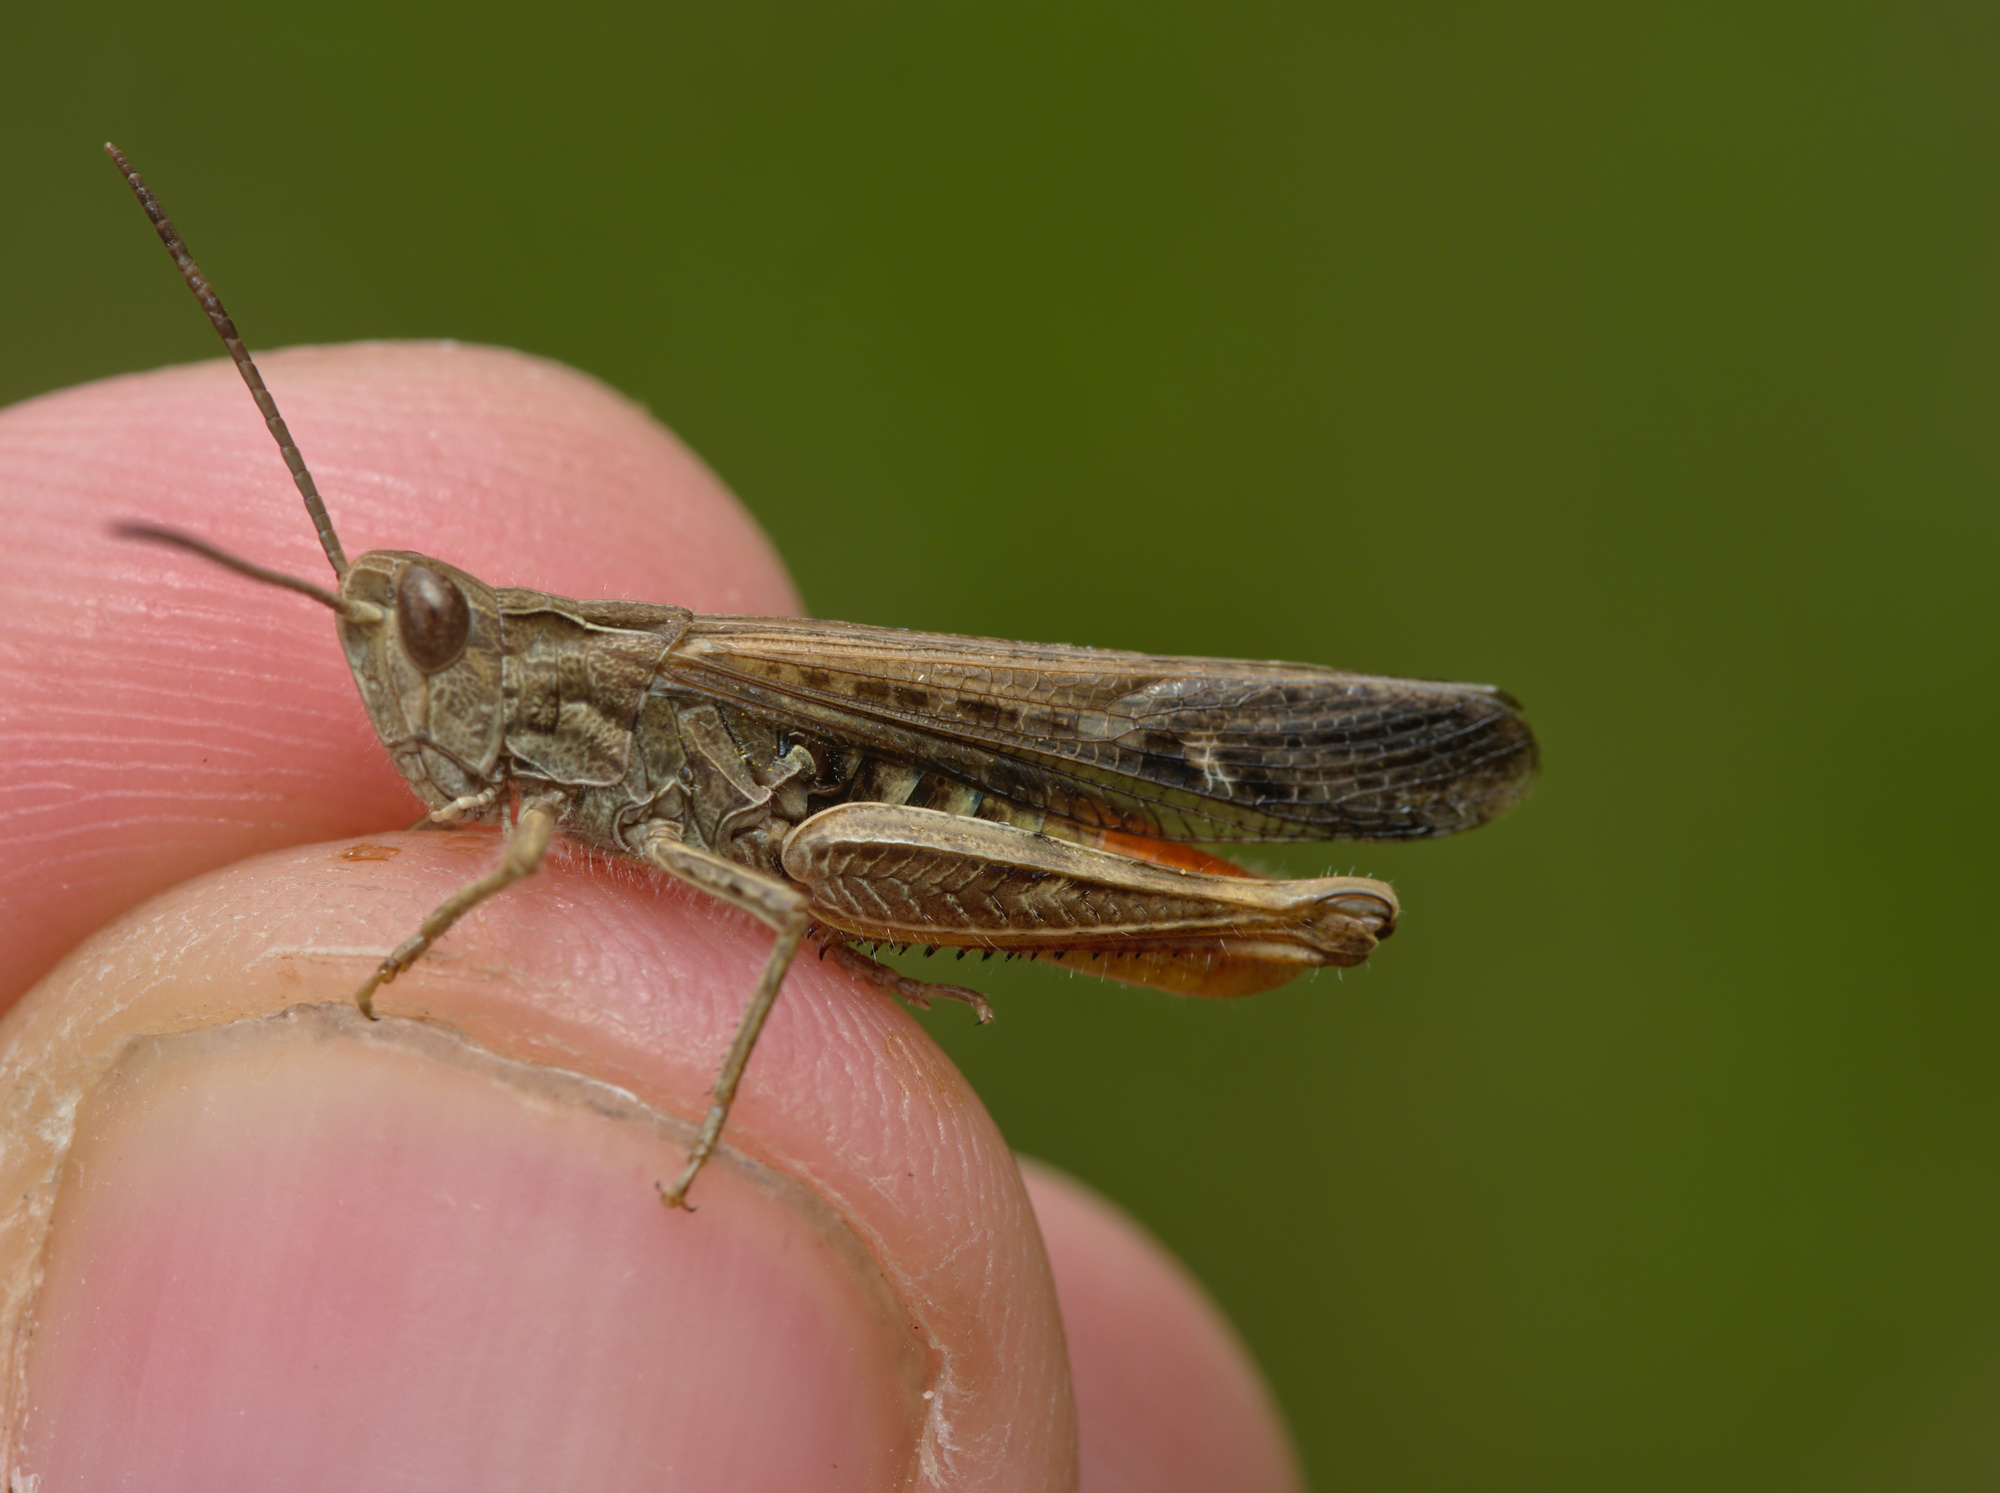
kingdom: Animalia
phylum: Arthropoda
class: Insecta
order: Orthoptera
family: Acrididae
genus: Chorthippus
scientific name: Chorthippus brunneus
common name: Field grasshopper
